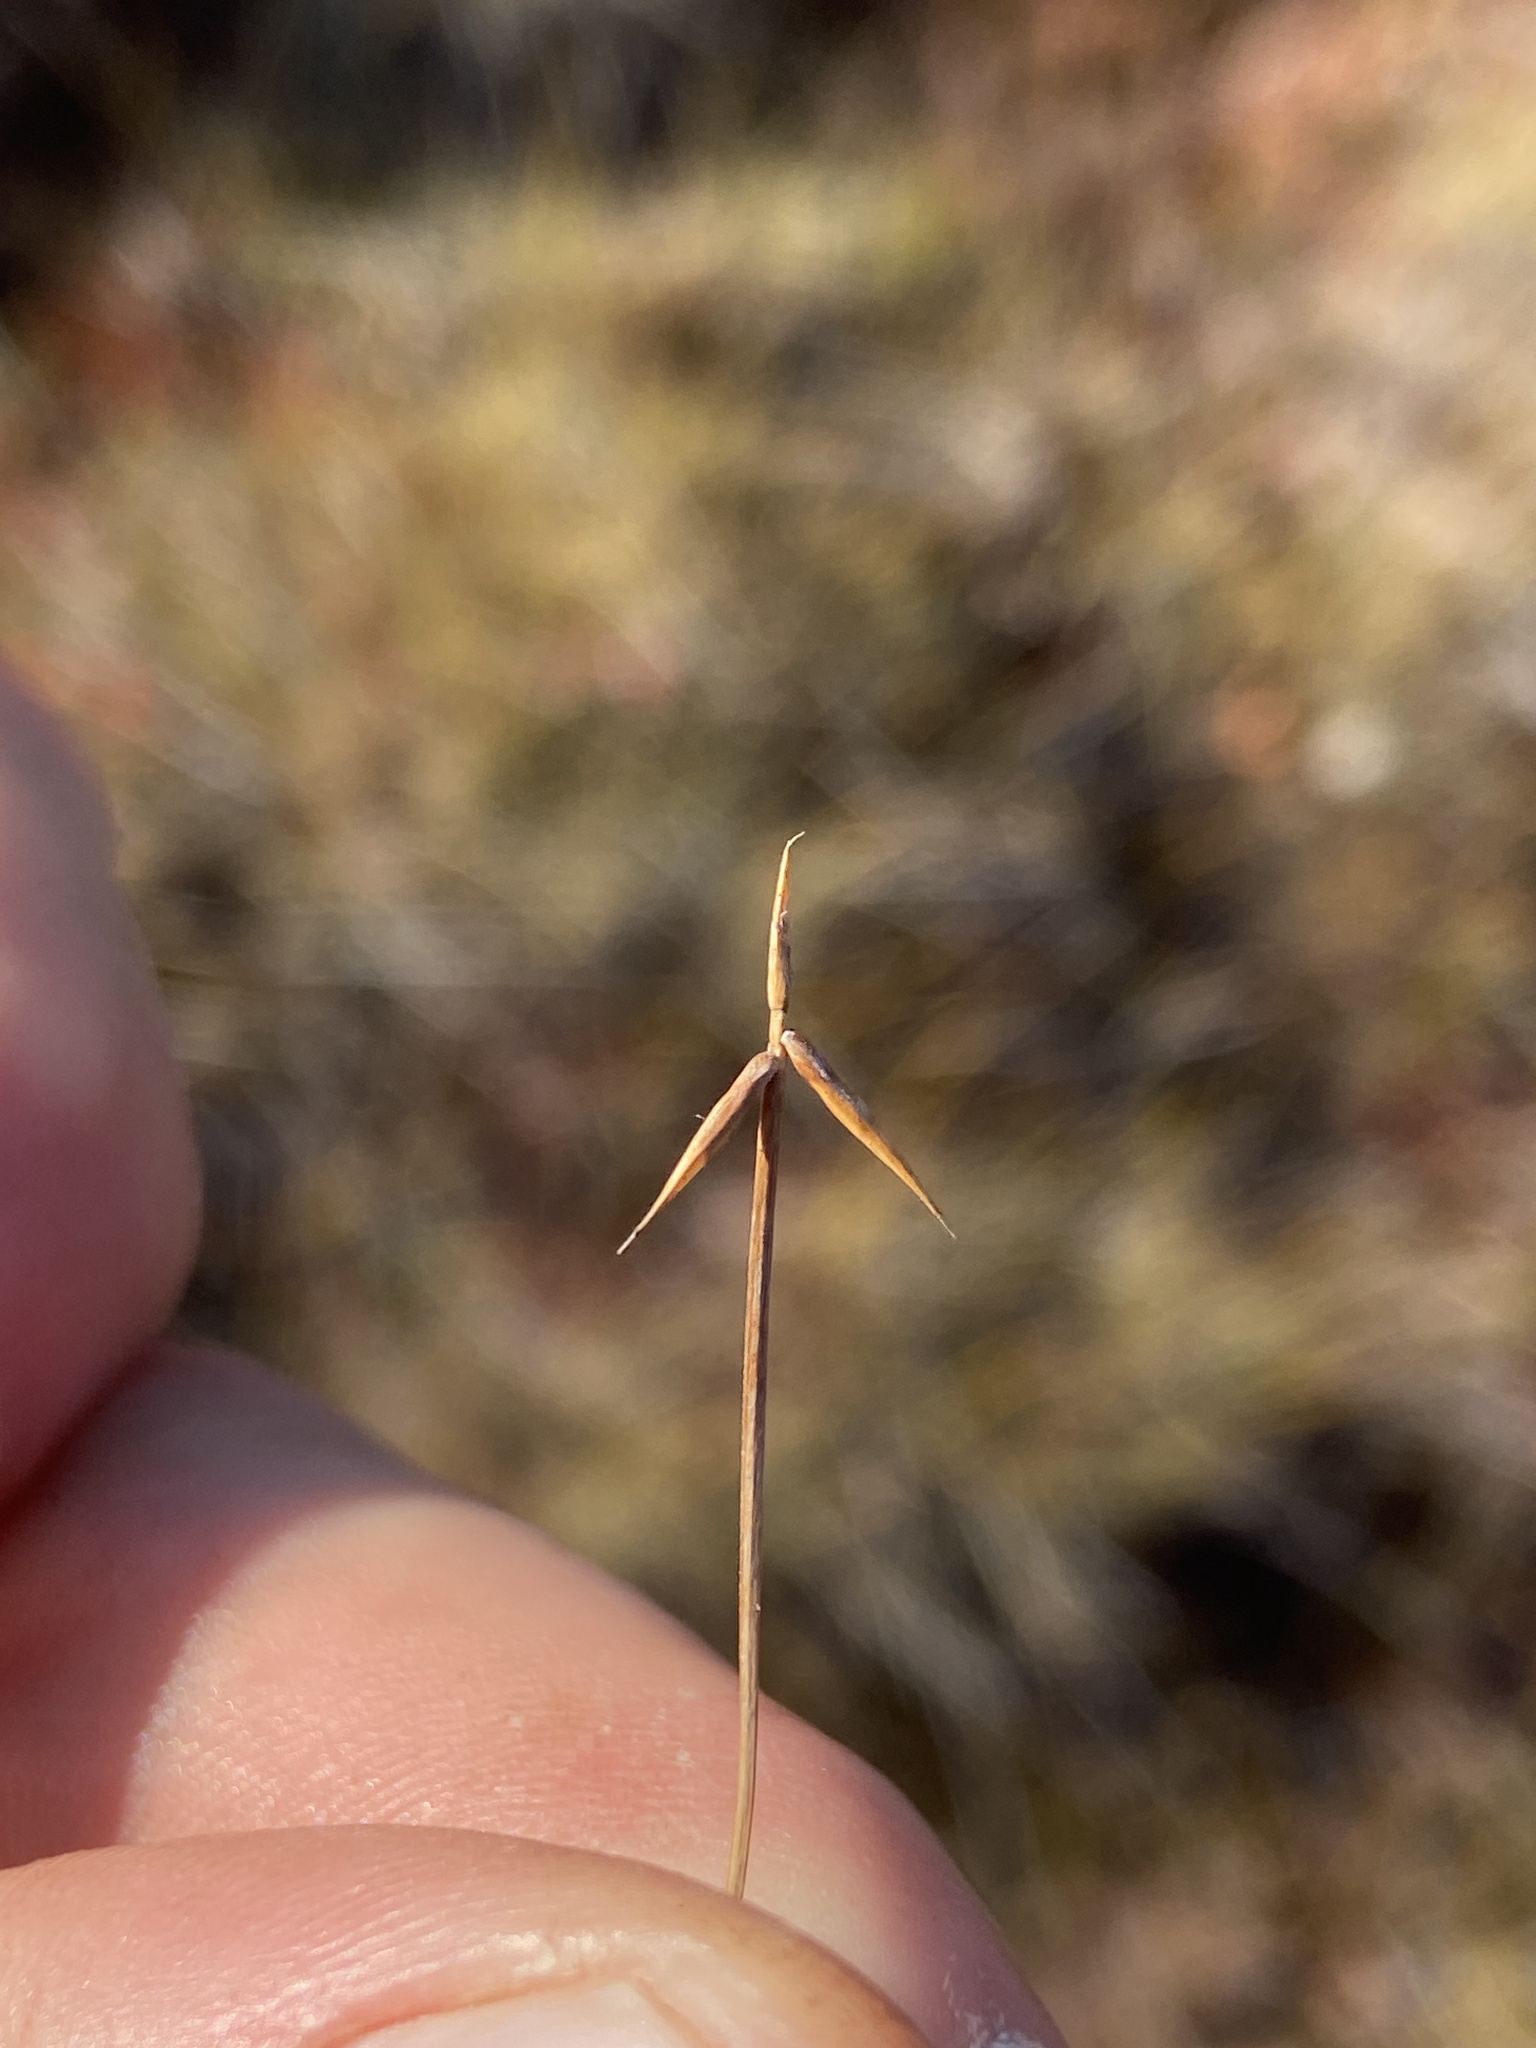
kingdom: Plantae
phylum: Tracheophyta
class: Liliopsida
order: Poales
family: Cyperaceae
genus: Carex
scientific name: Carex pauciflora
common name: Few-flowered sedge
